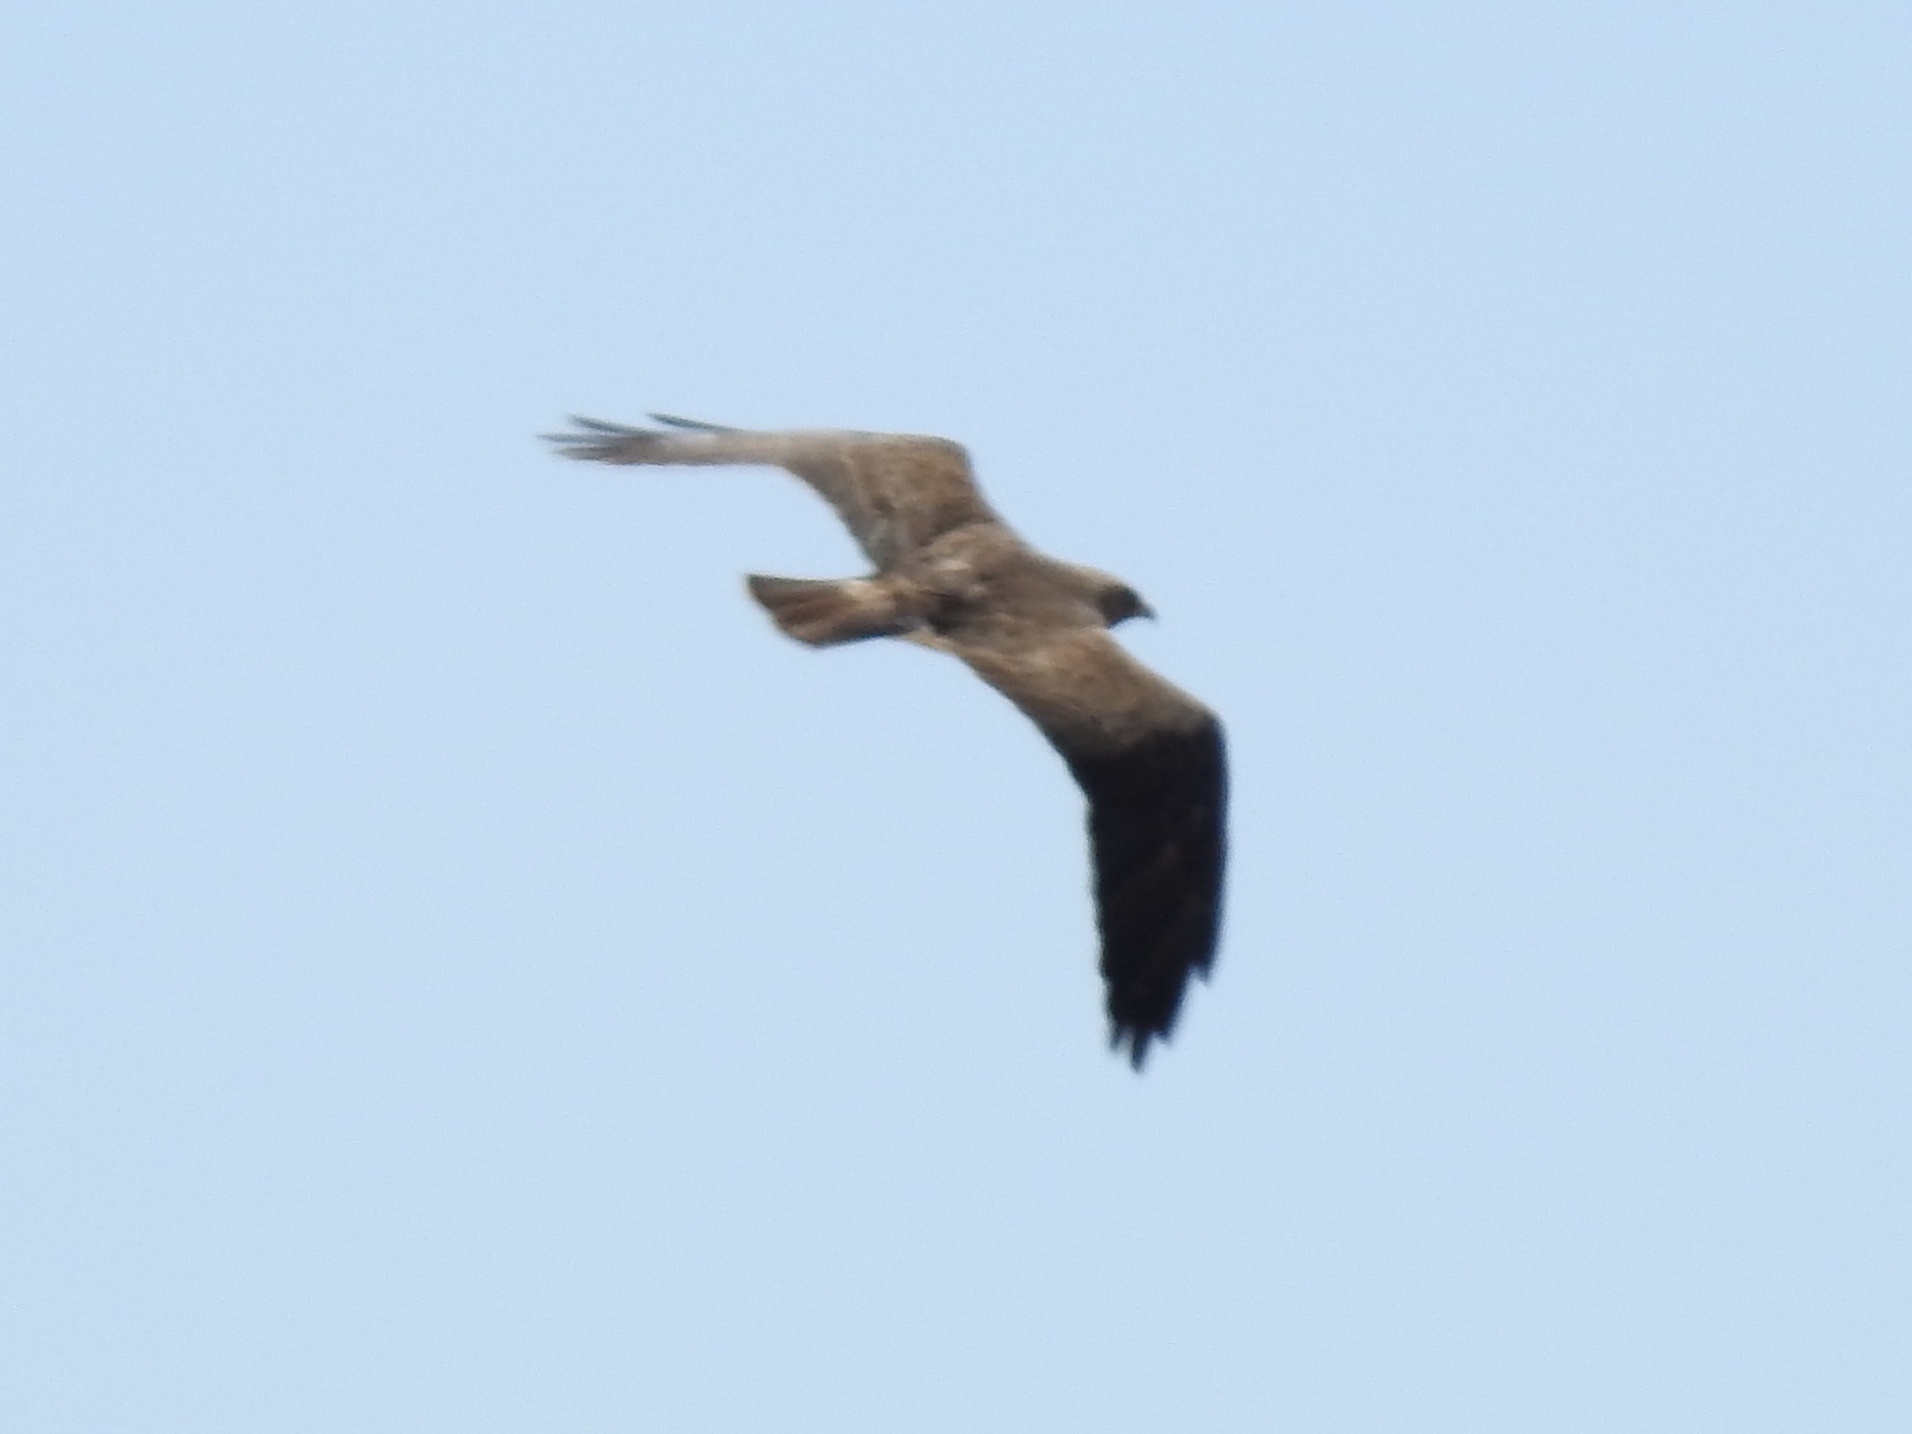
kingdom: Animalia
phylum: Chordata
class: Aves
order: Accipitriformes
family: Accipitridae
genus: Buteo
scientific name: Buteo swainsoni
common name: Swainson's hawk
